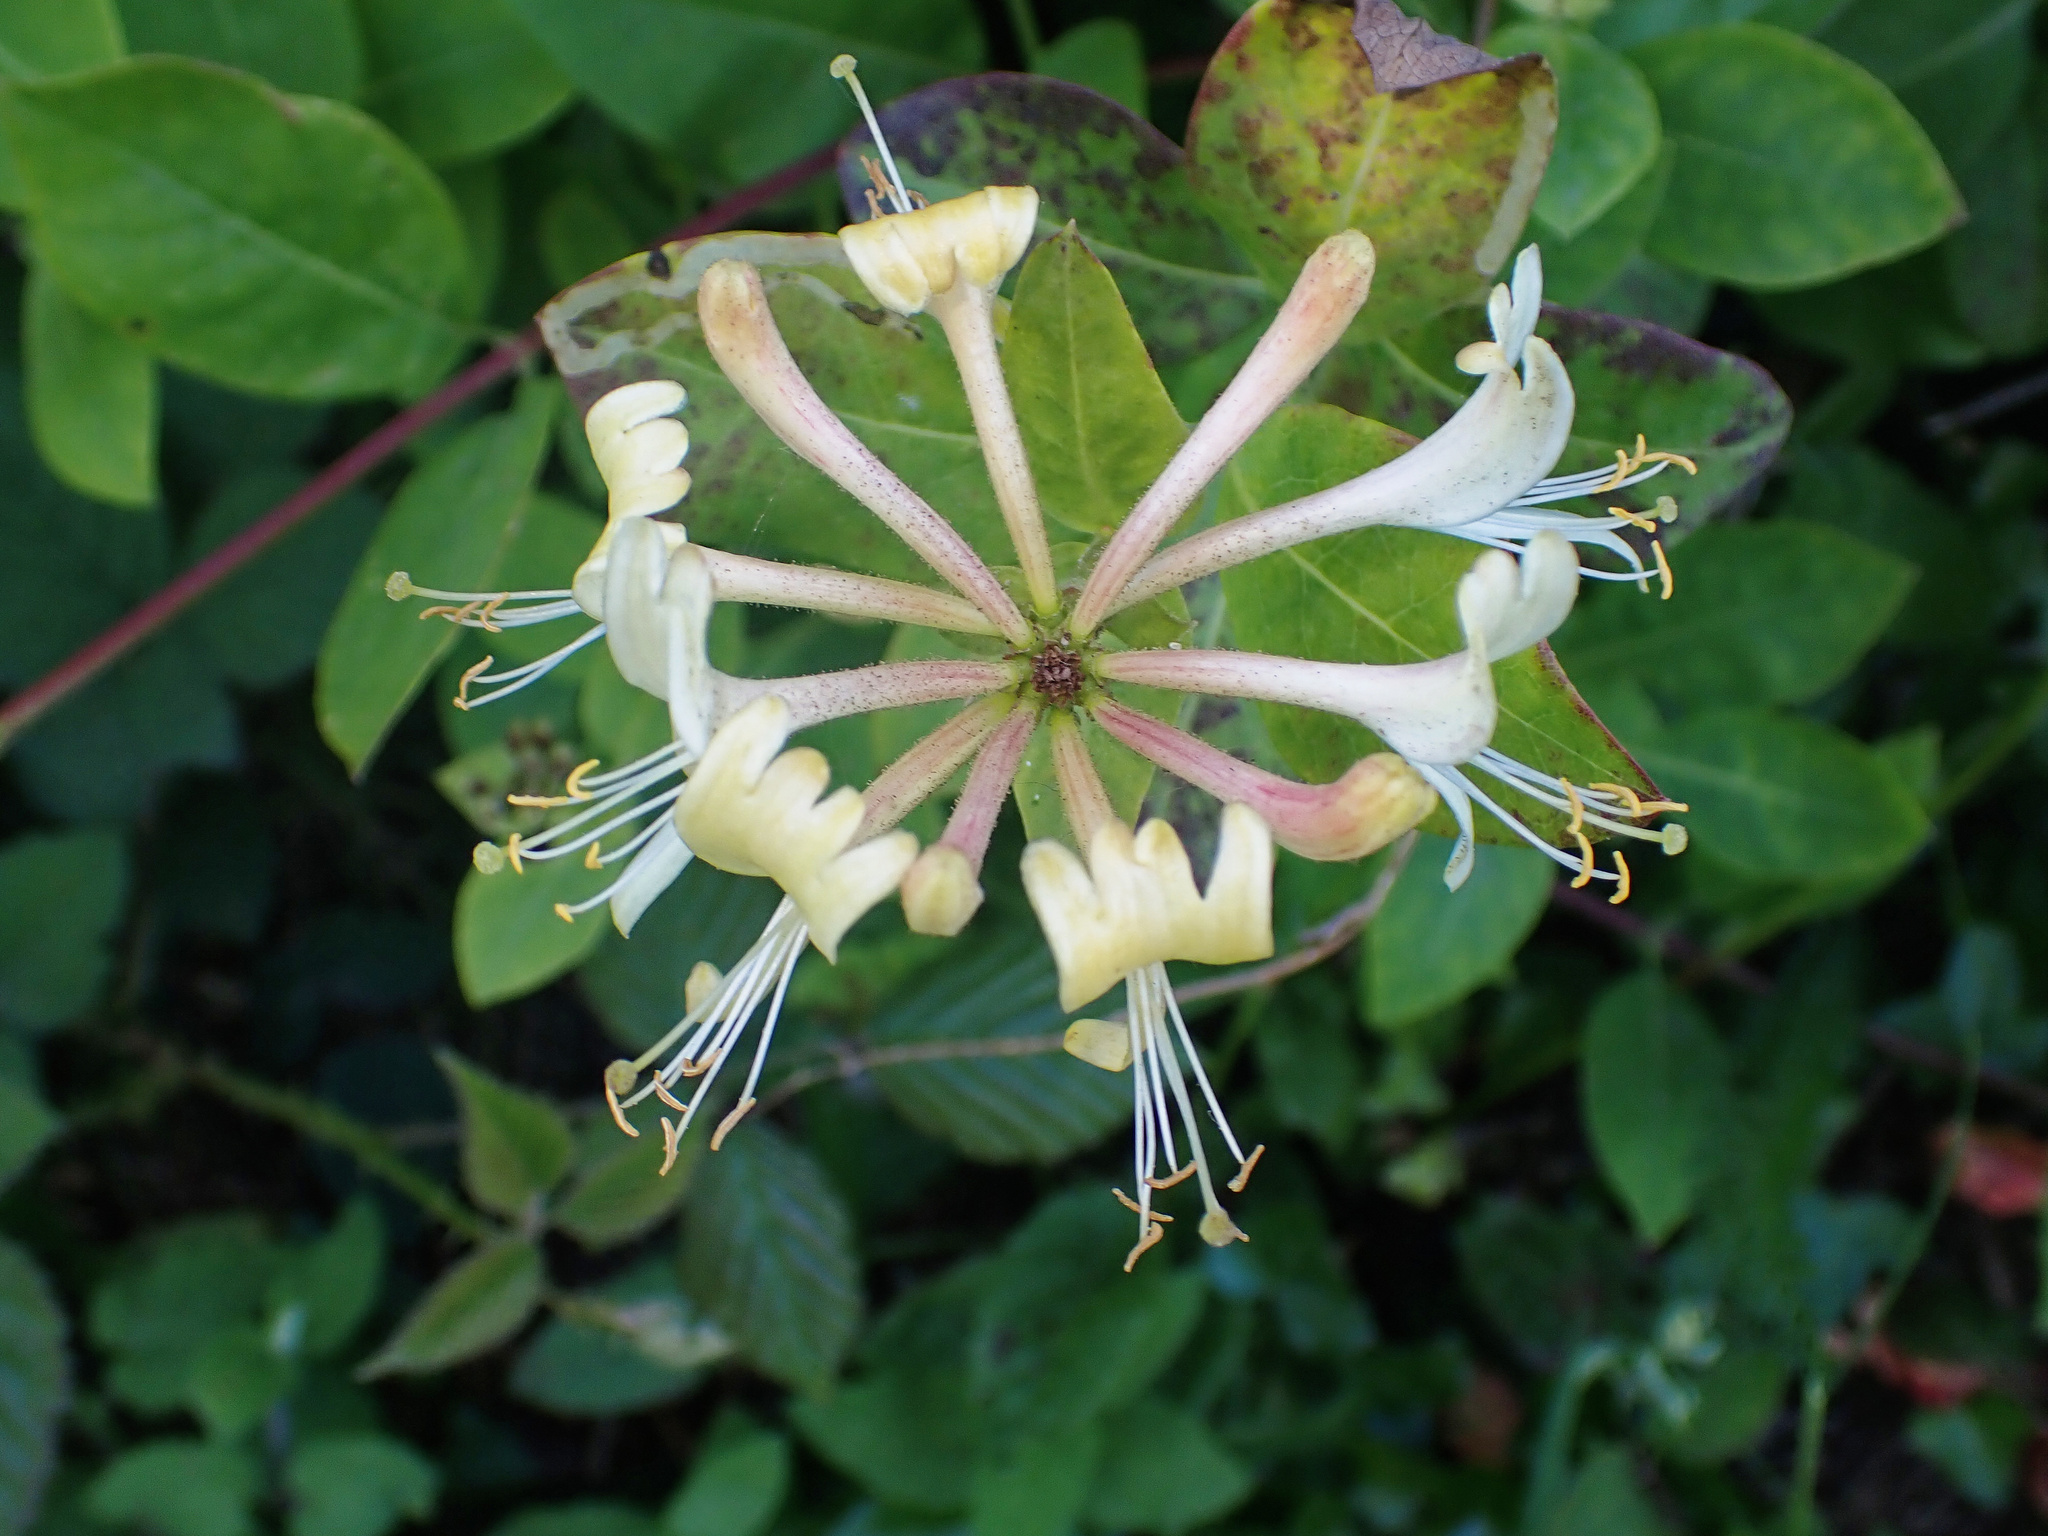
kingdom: Plantae
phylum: Tracheophyta
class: Magnoliopsida
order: Dipsacales
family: Caprifoliaceae
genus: Lonicera
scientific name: Lonicera periclymenum
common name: European honeysuckle
